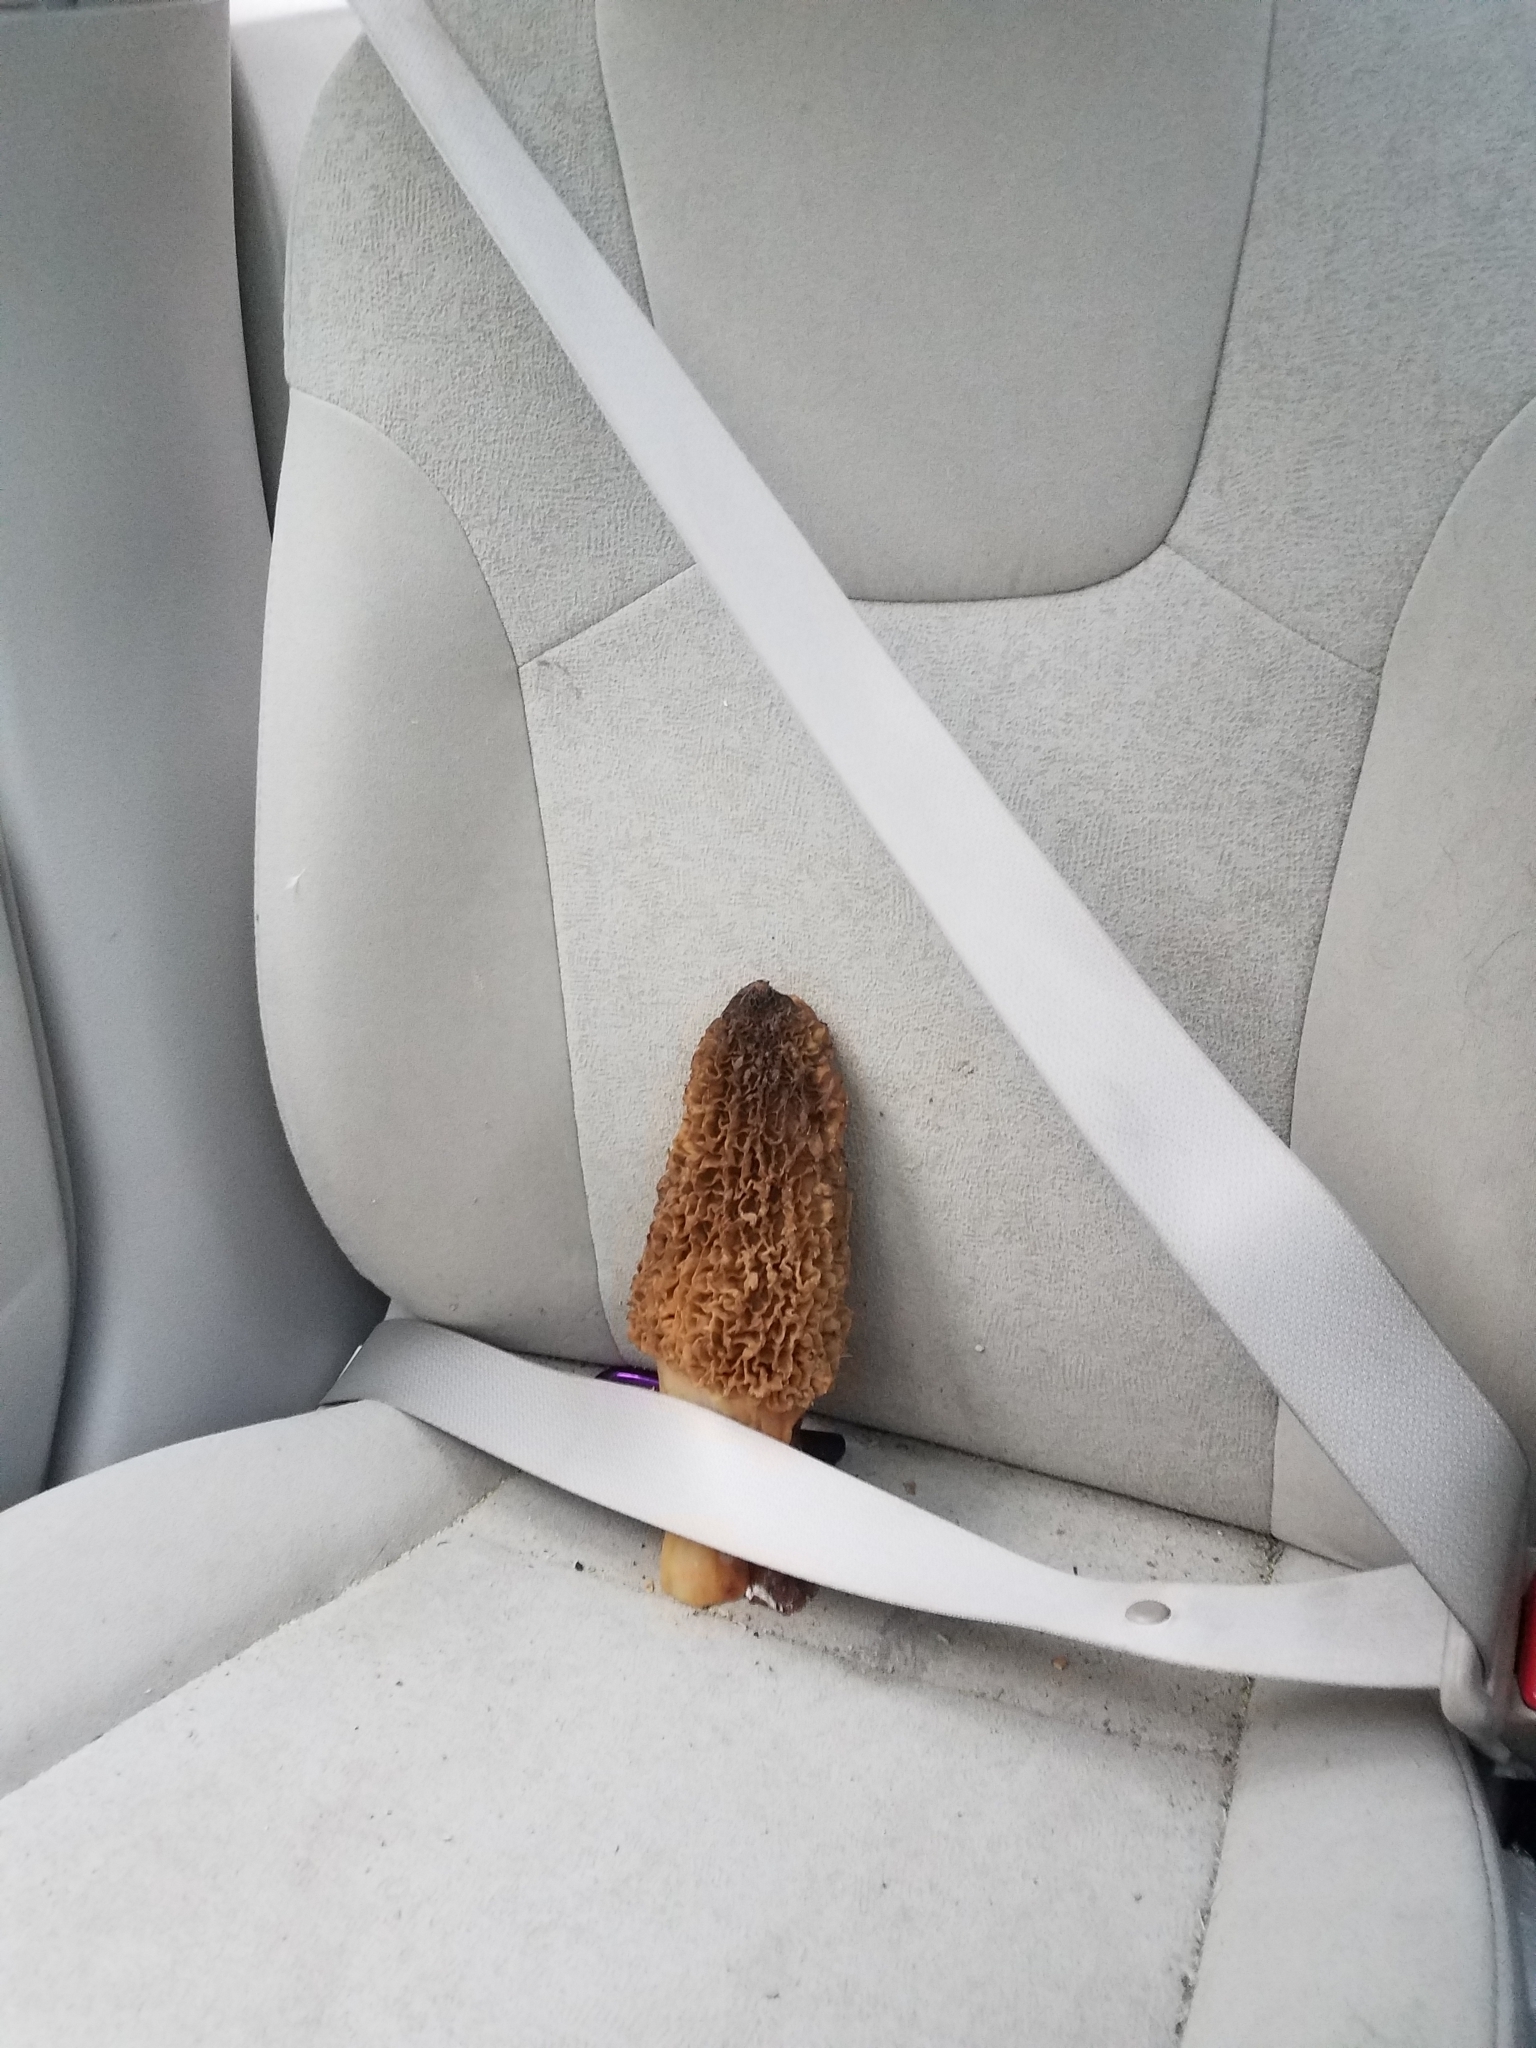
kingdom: Fungi
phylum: Ascomycota
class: Pezizomycetes
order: Pezizales
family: Morchellaceae
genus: Morchella
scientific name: Morchella americana
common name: White morel
